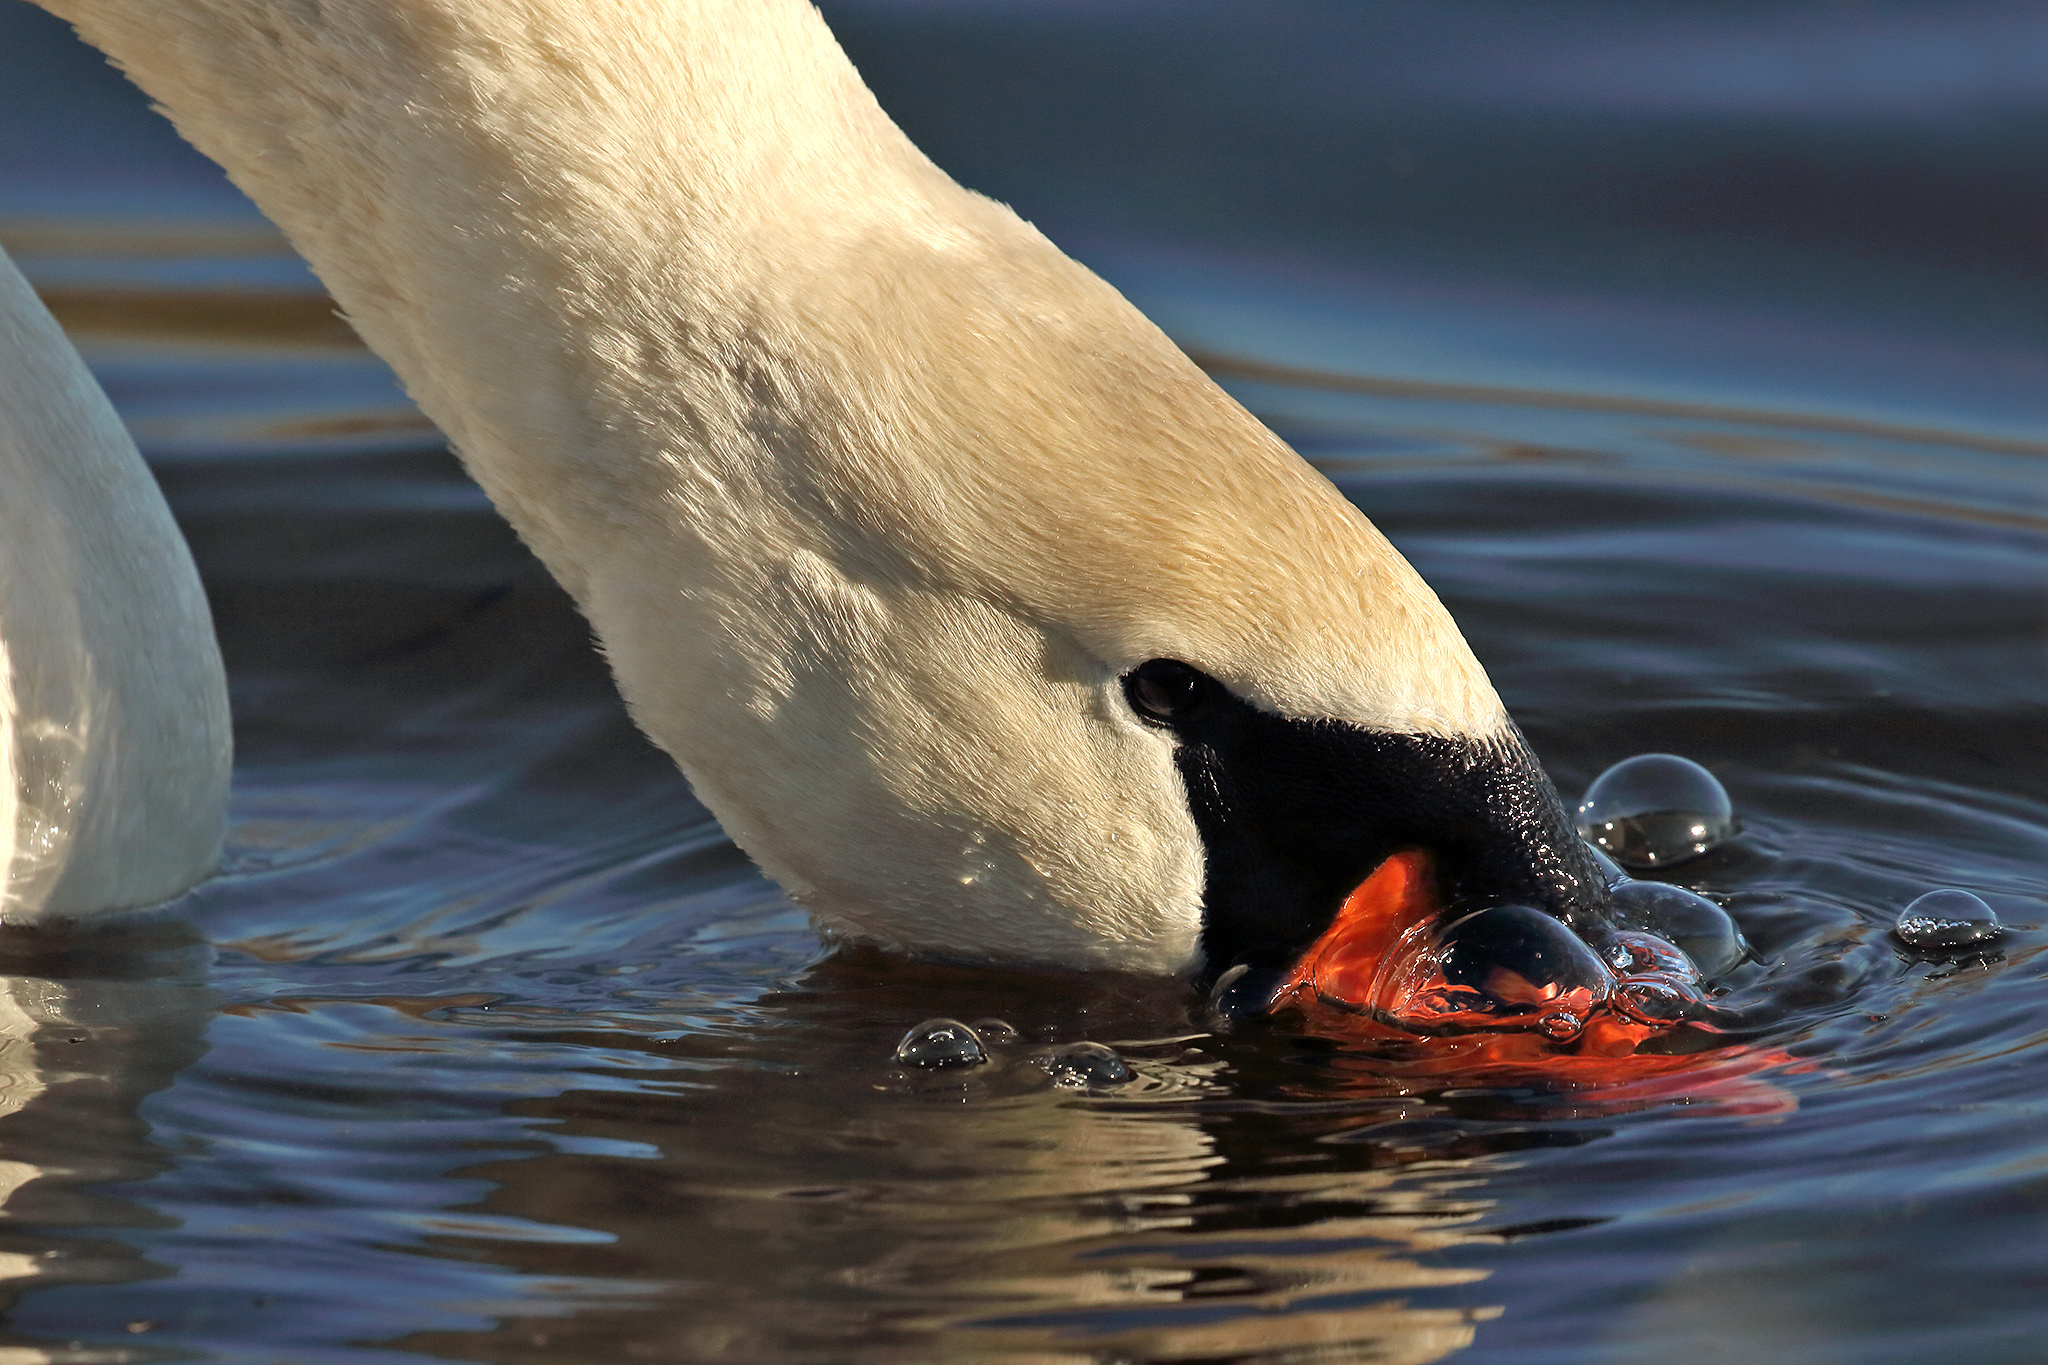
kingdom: Animalia
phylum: Chordata
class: Aves
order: Anseriformes
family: Anatidae
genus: Cygnus
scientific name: Cygnus olor
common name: Mute swan
